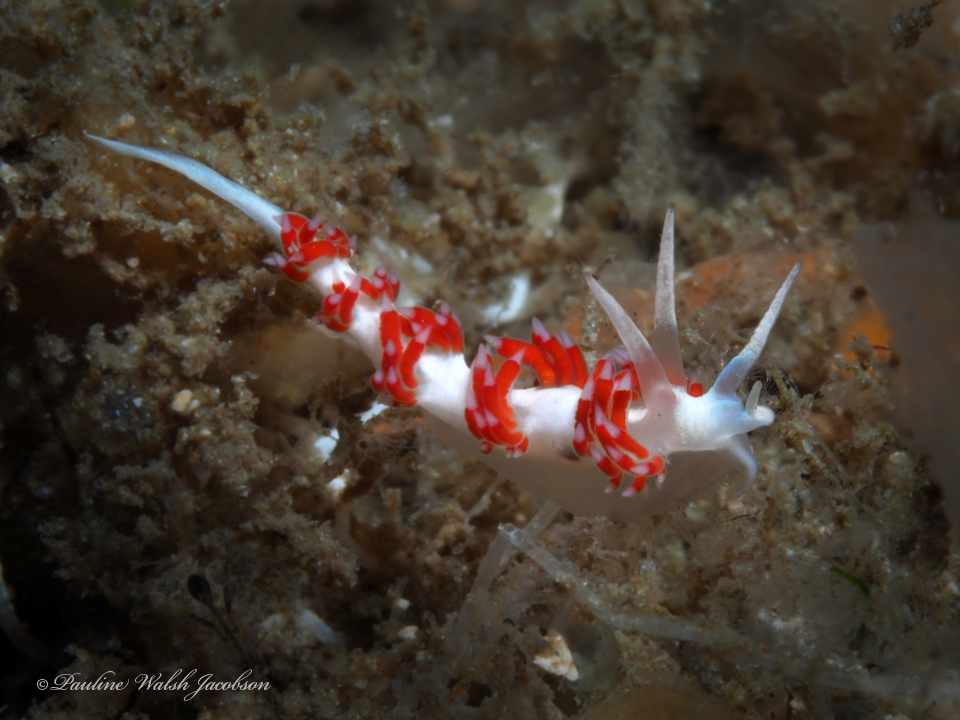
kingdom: Animalia
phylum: Mollusca
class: Gastropoda
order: Nudibranchia
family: Flabellinidae
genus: Flabellina
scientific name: Flabellina dushia
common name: Dushia flabellina
